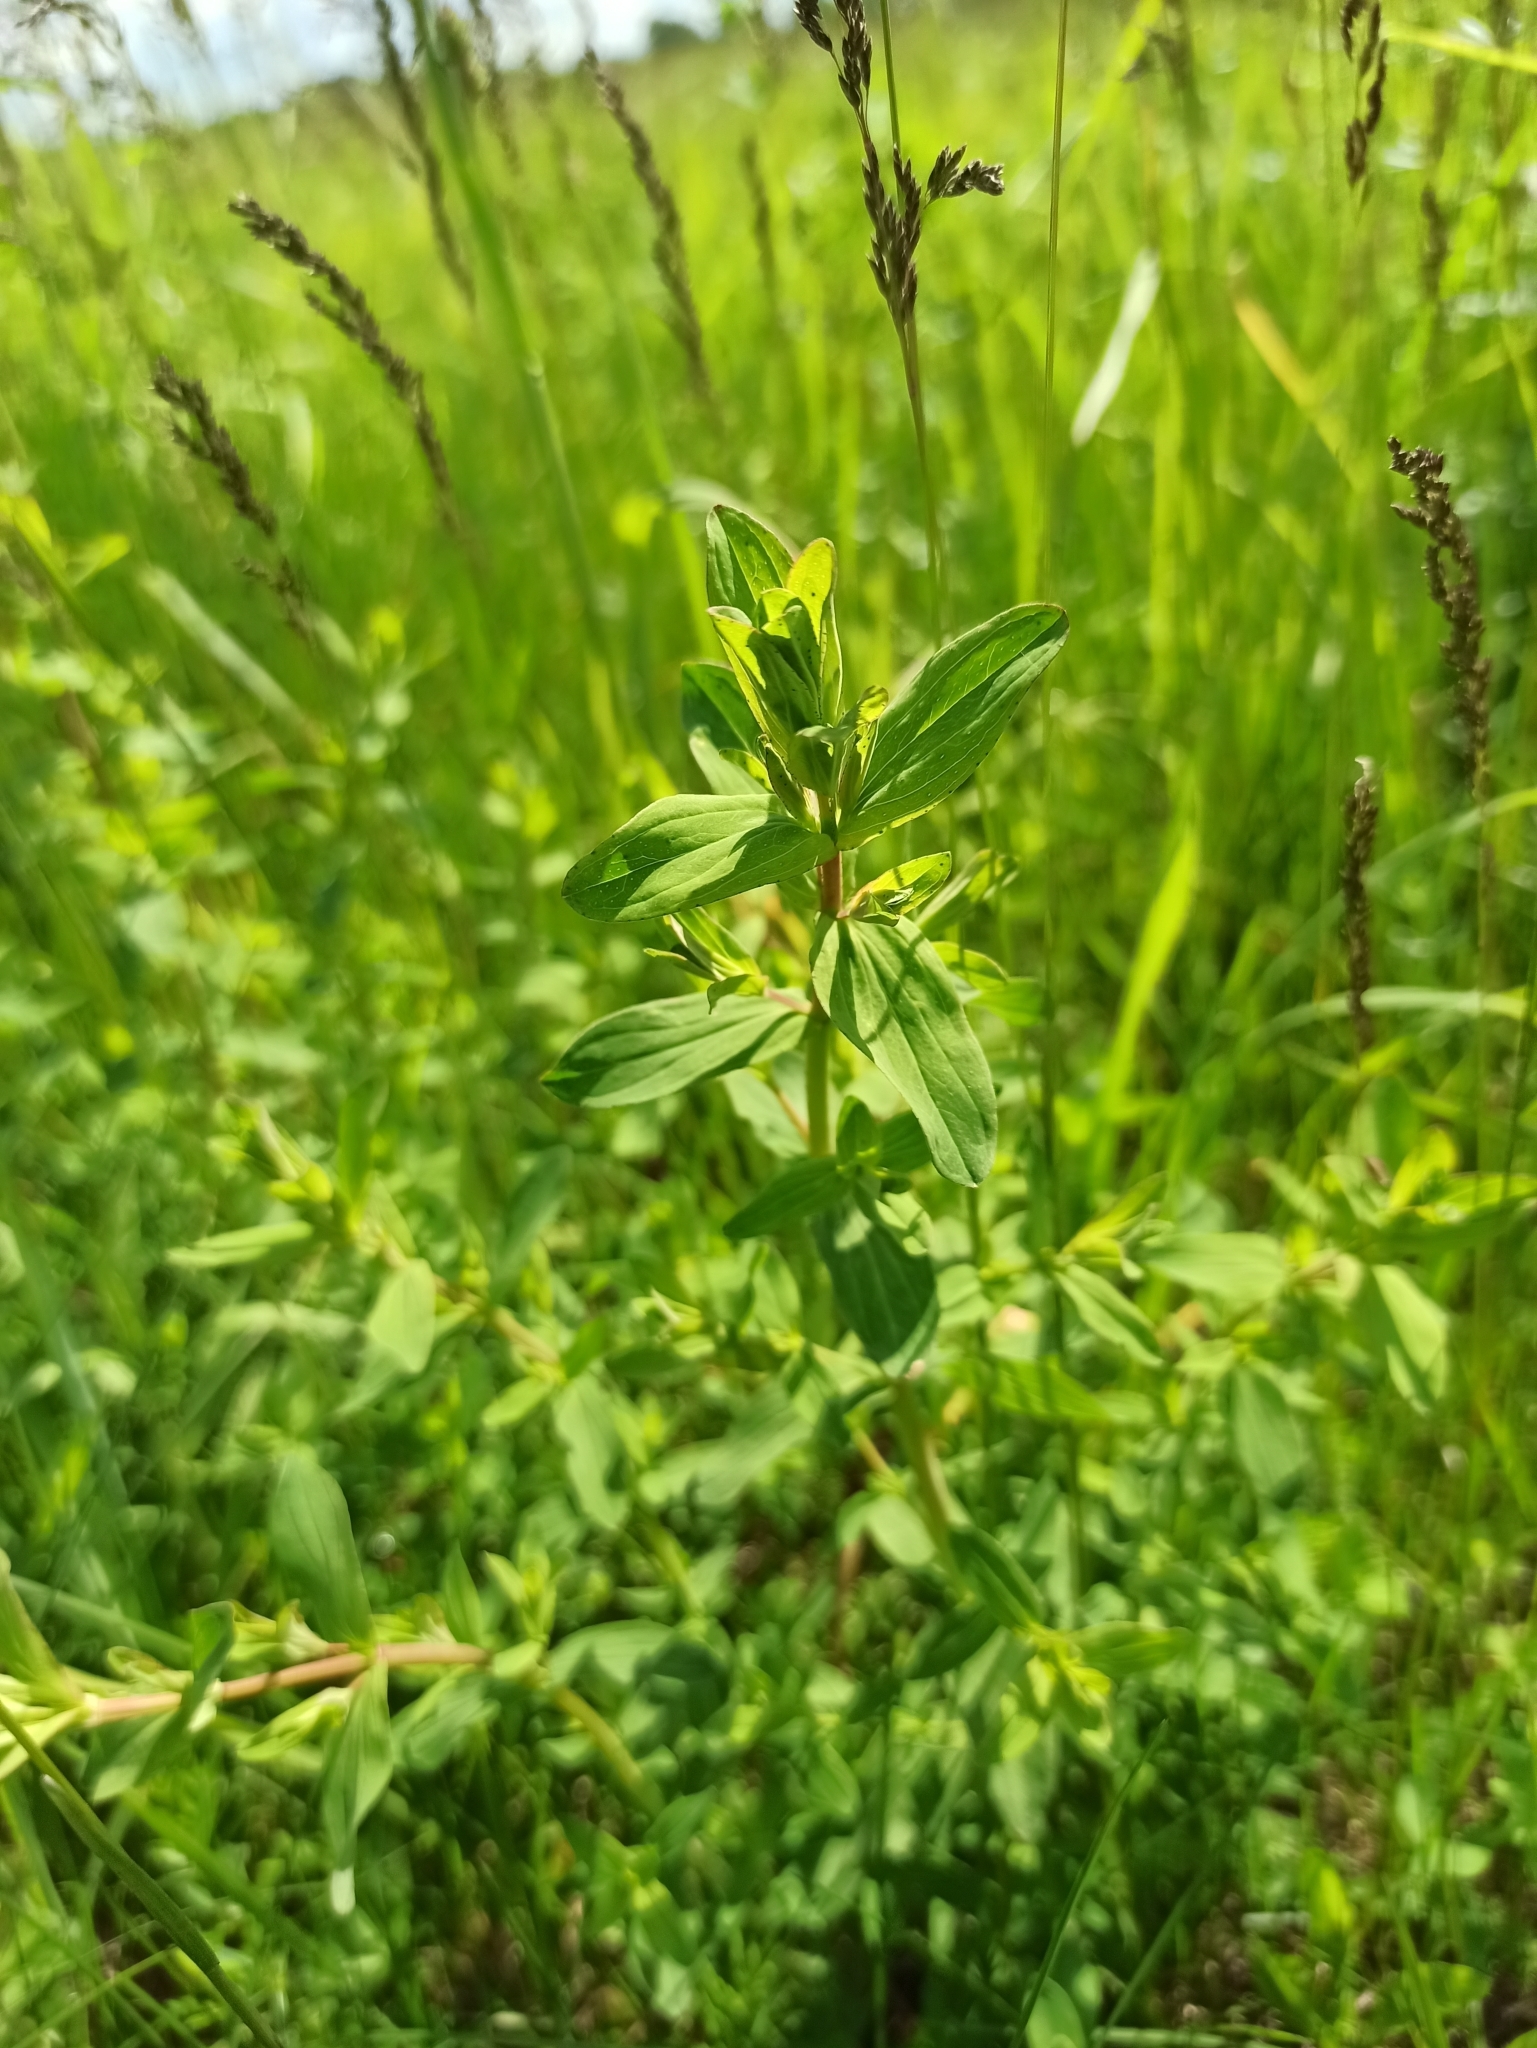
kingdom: Plantae
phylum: Tracheophyta
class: Magnoliopsida
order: Malpighiales
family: Hypericaceae
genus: Hypericum
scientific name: Hypericum perforatum
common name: Common st. johnswort
